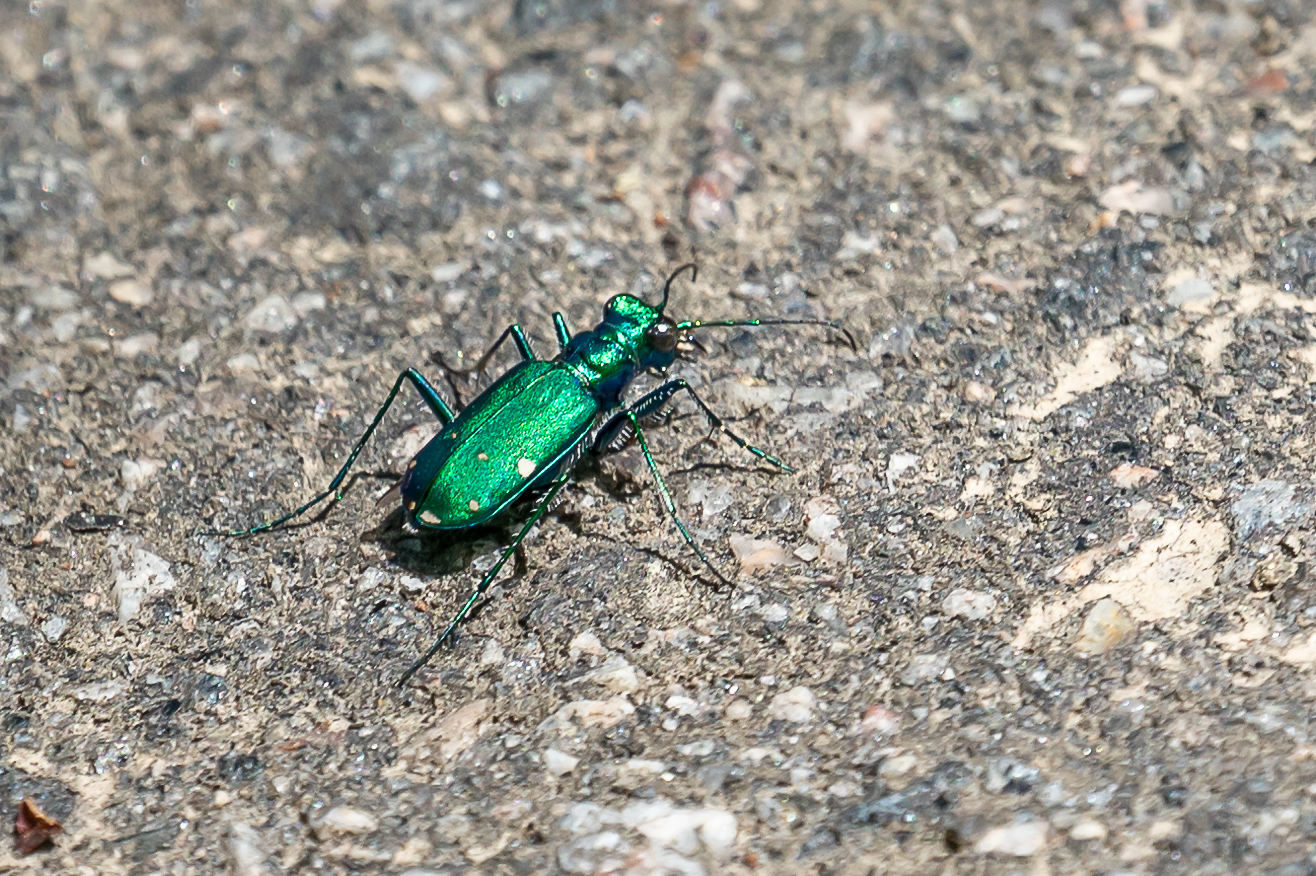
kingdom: Animalia
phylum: Arthropoda
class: Insecta
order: Coleoptera
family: Carabidae
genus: Cicindela
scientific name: Cicindela sexguttata
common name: Six-spotted tiger beetle
